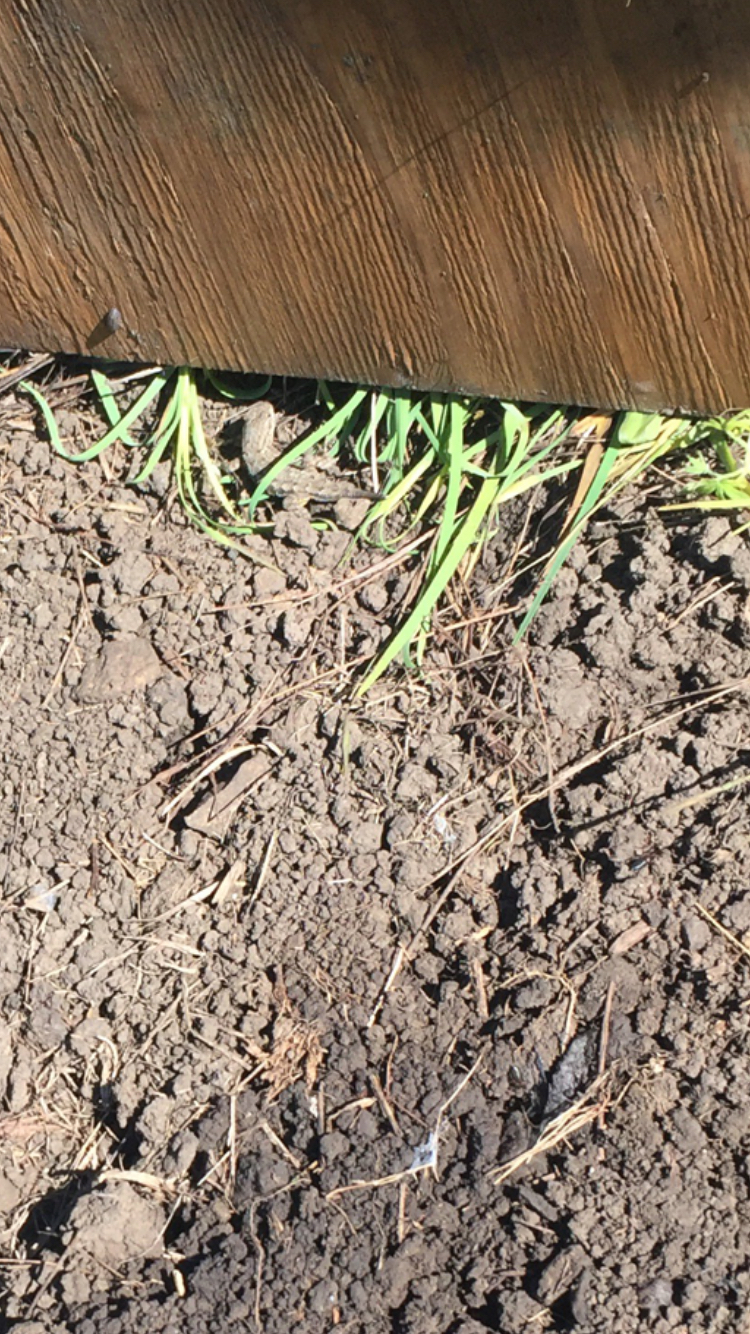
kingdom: Animalia
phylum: Chordata
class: Squamata
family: Phrynosomatidae
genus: Sceloporus
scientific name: Sceloporus occidentalis
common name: Western fence lizard
